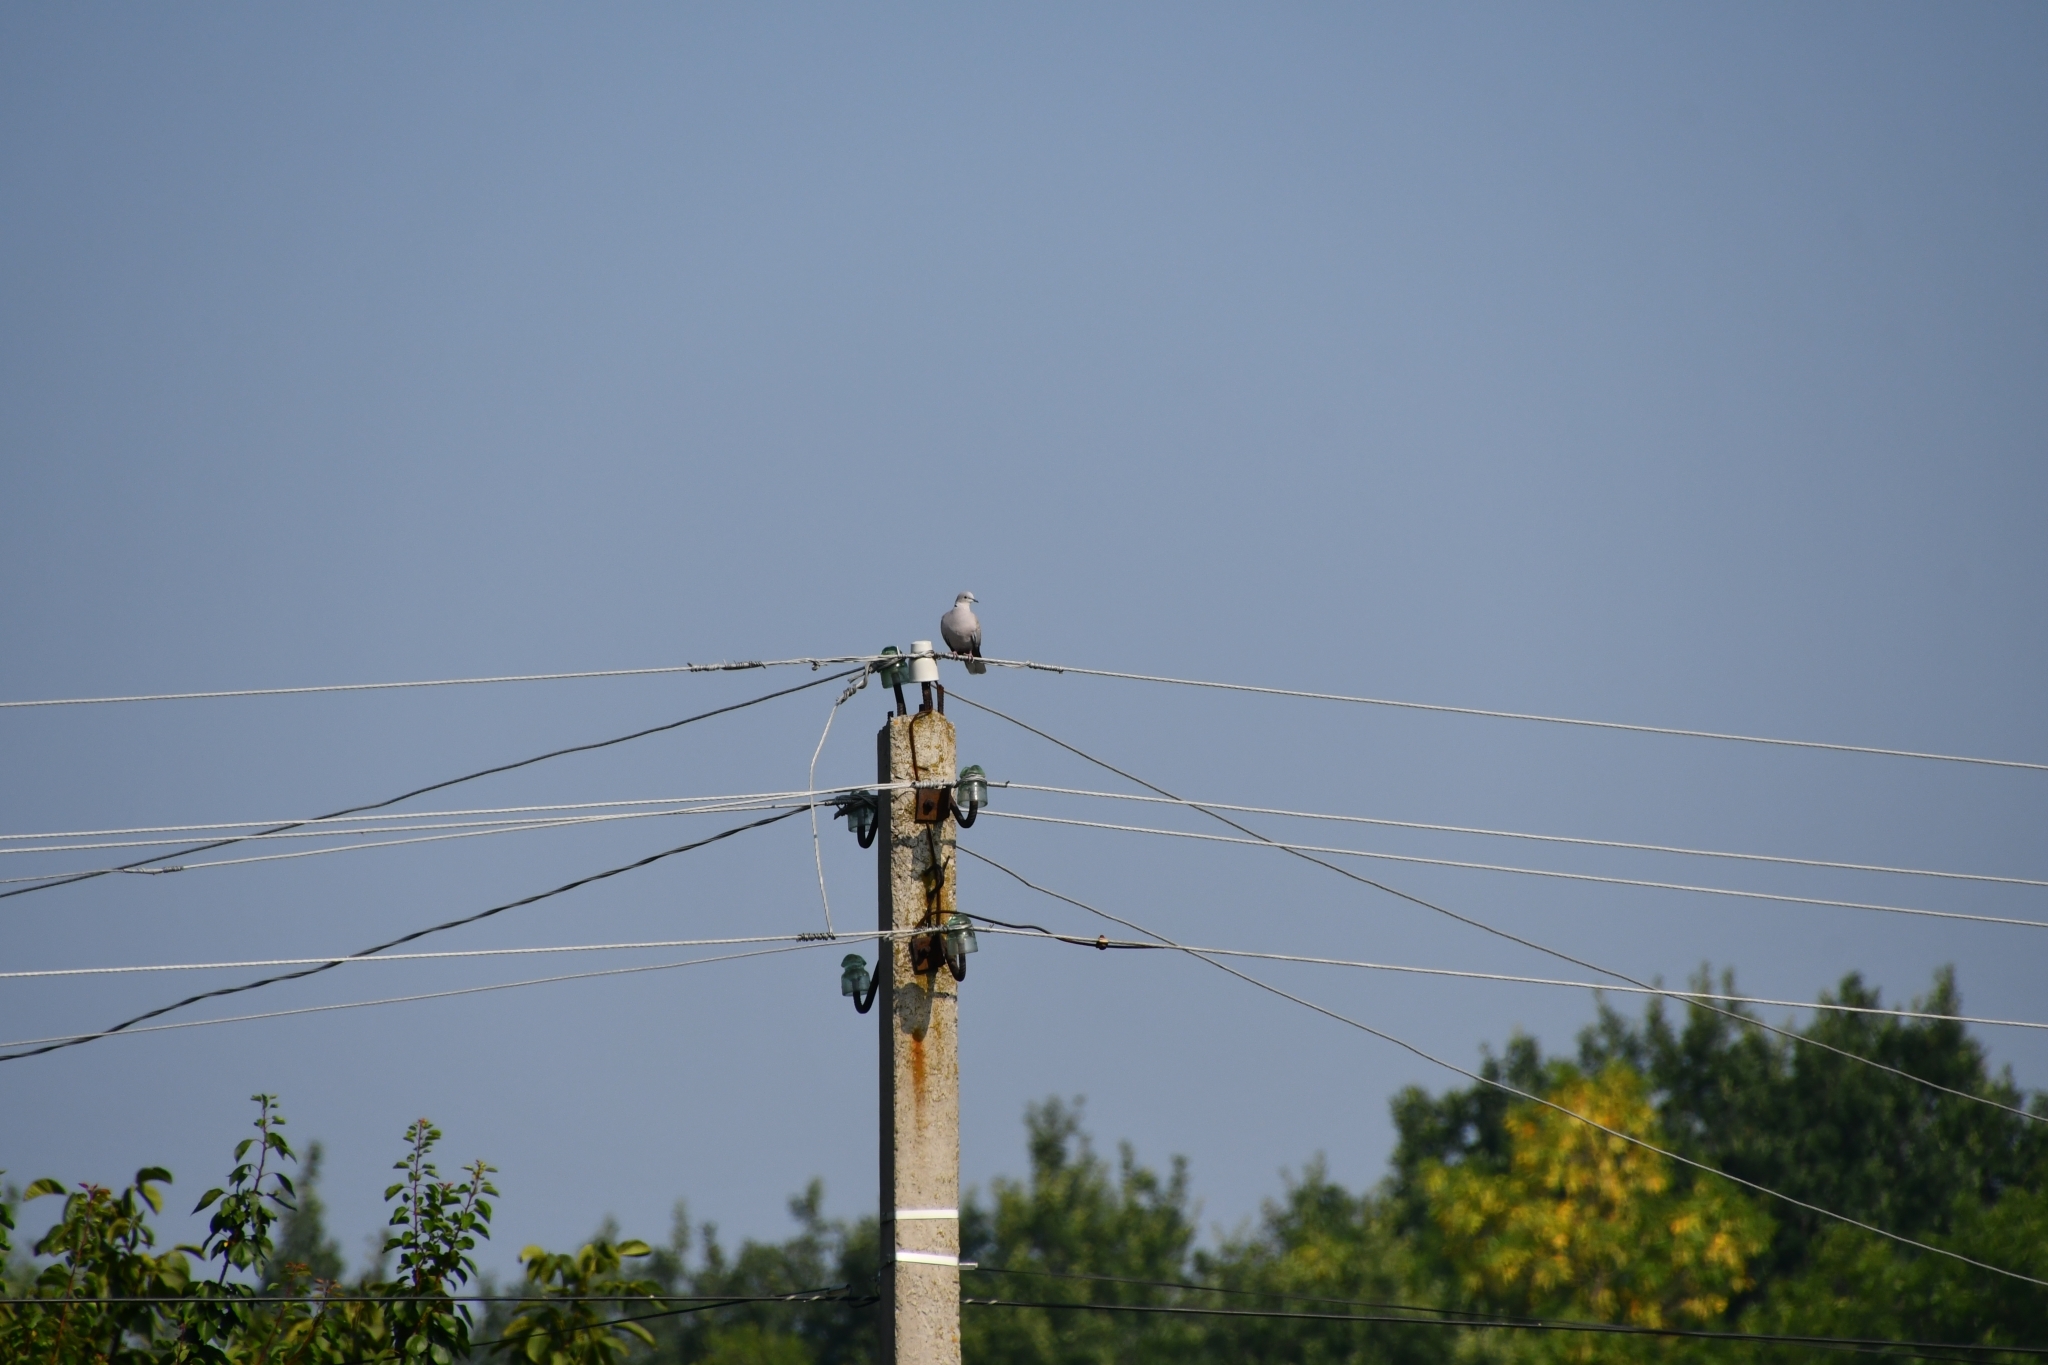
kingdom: Animalia
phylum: Chordata
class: Aves
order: Columbiformes
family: Columbidae
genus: Streptopelia
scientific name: Streptopelia decaocto
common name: Eurasian collared dove
